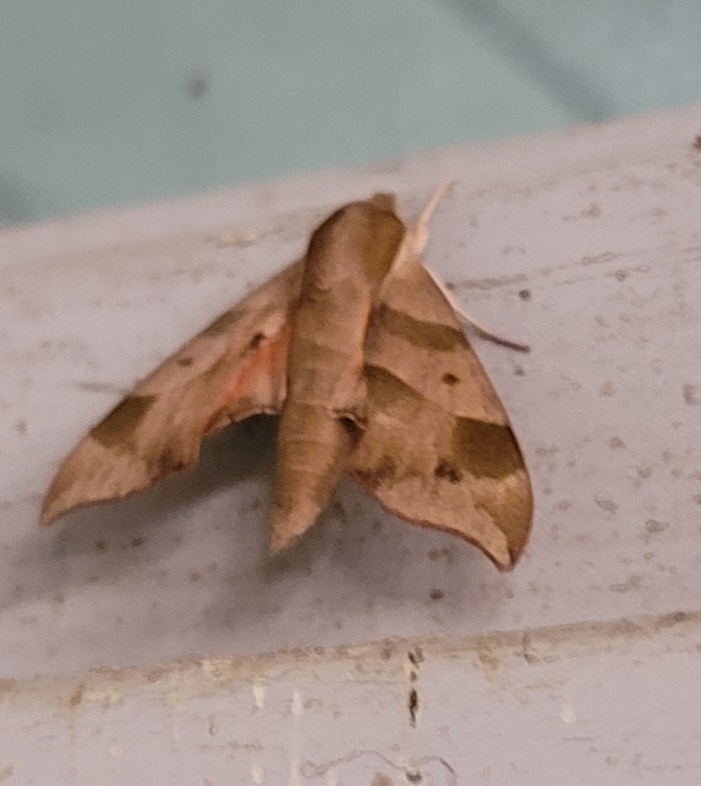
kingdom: Animalia
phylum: Arthropoda
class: Insecta
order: Lepidoptera
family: Sphingidae
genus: Darapsa
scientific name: Darapsa myron
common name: Hog sphinx
